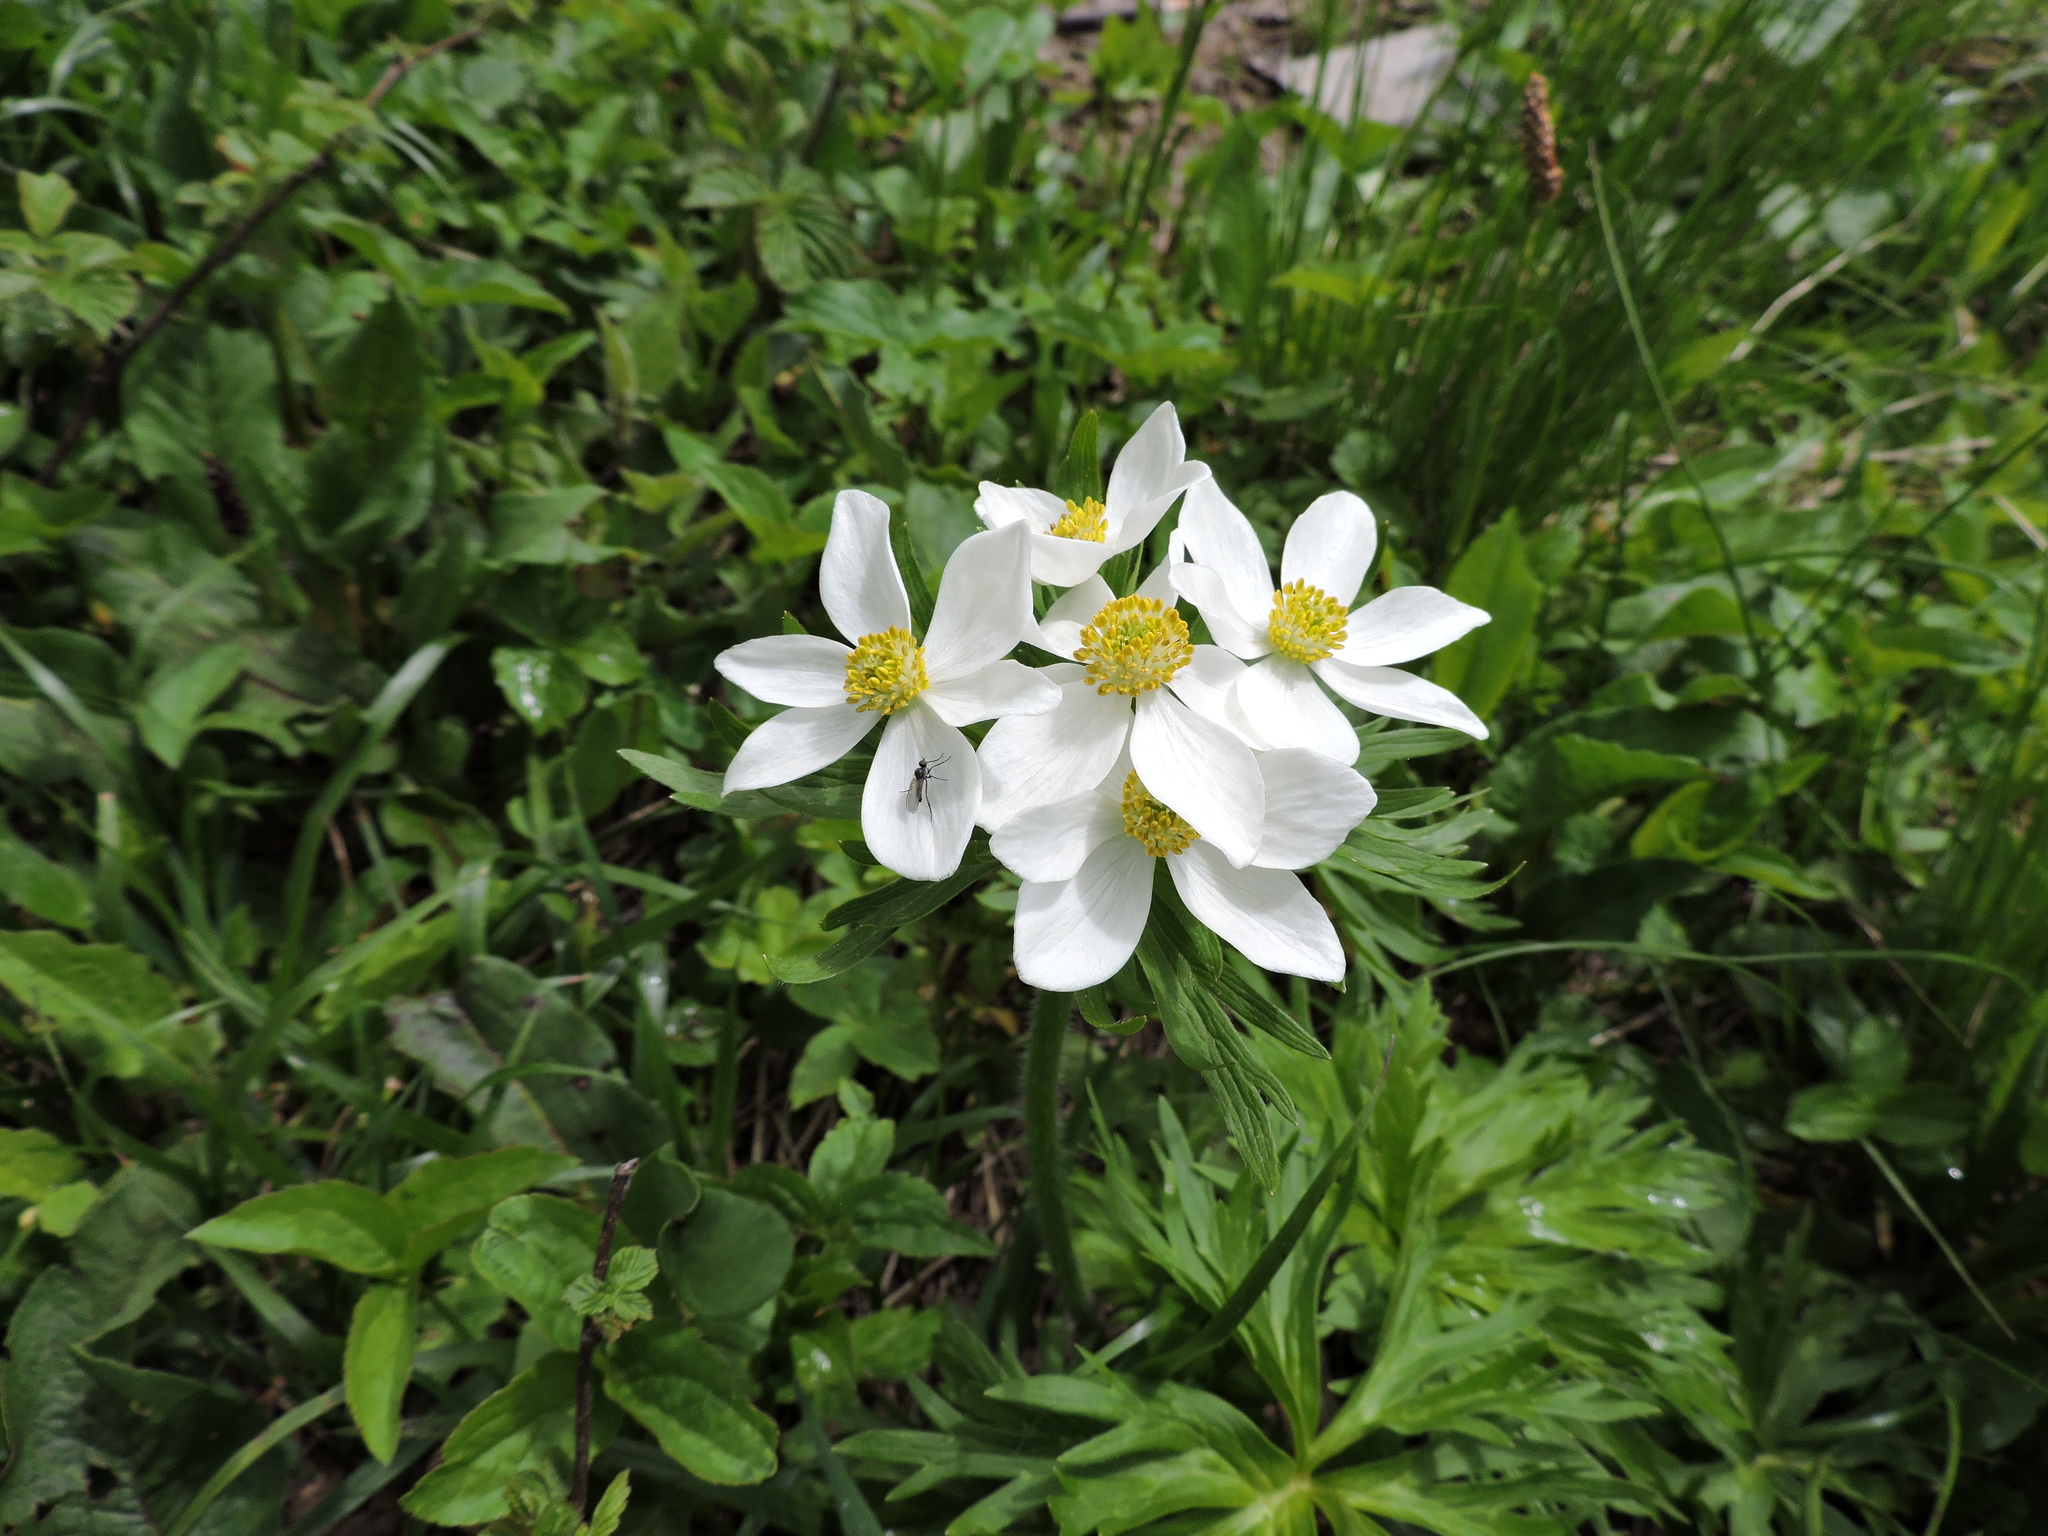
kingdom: Plantae
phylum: Tracheophyta
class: Magnoliopsida
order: Ranunculales
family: Ranunculaceae
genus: Anemonastrum
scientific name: Anemonastrum narcissiflorum
